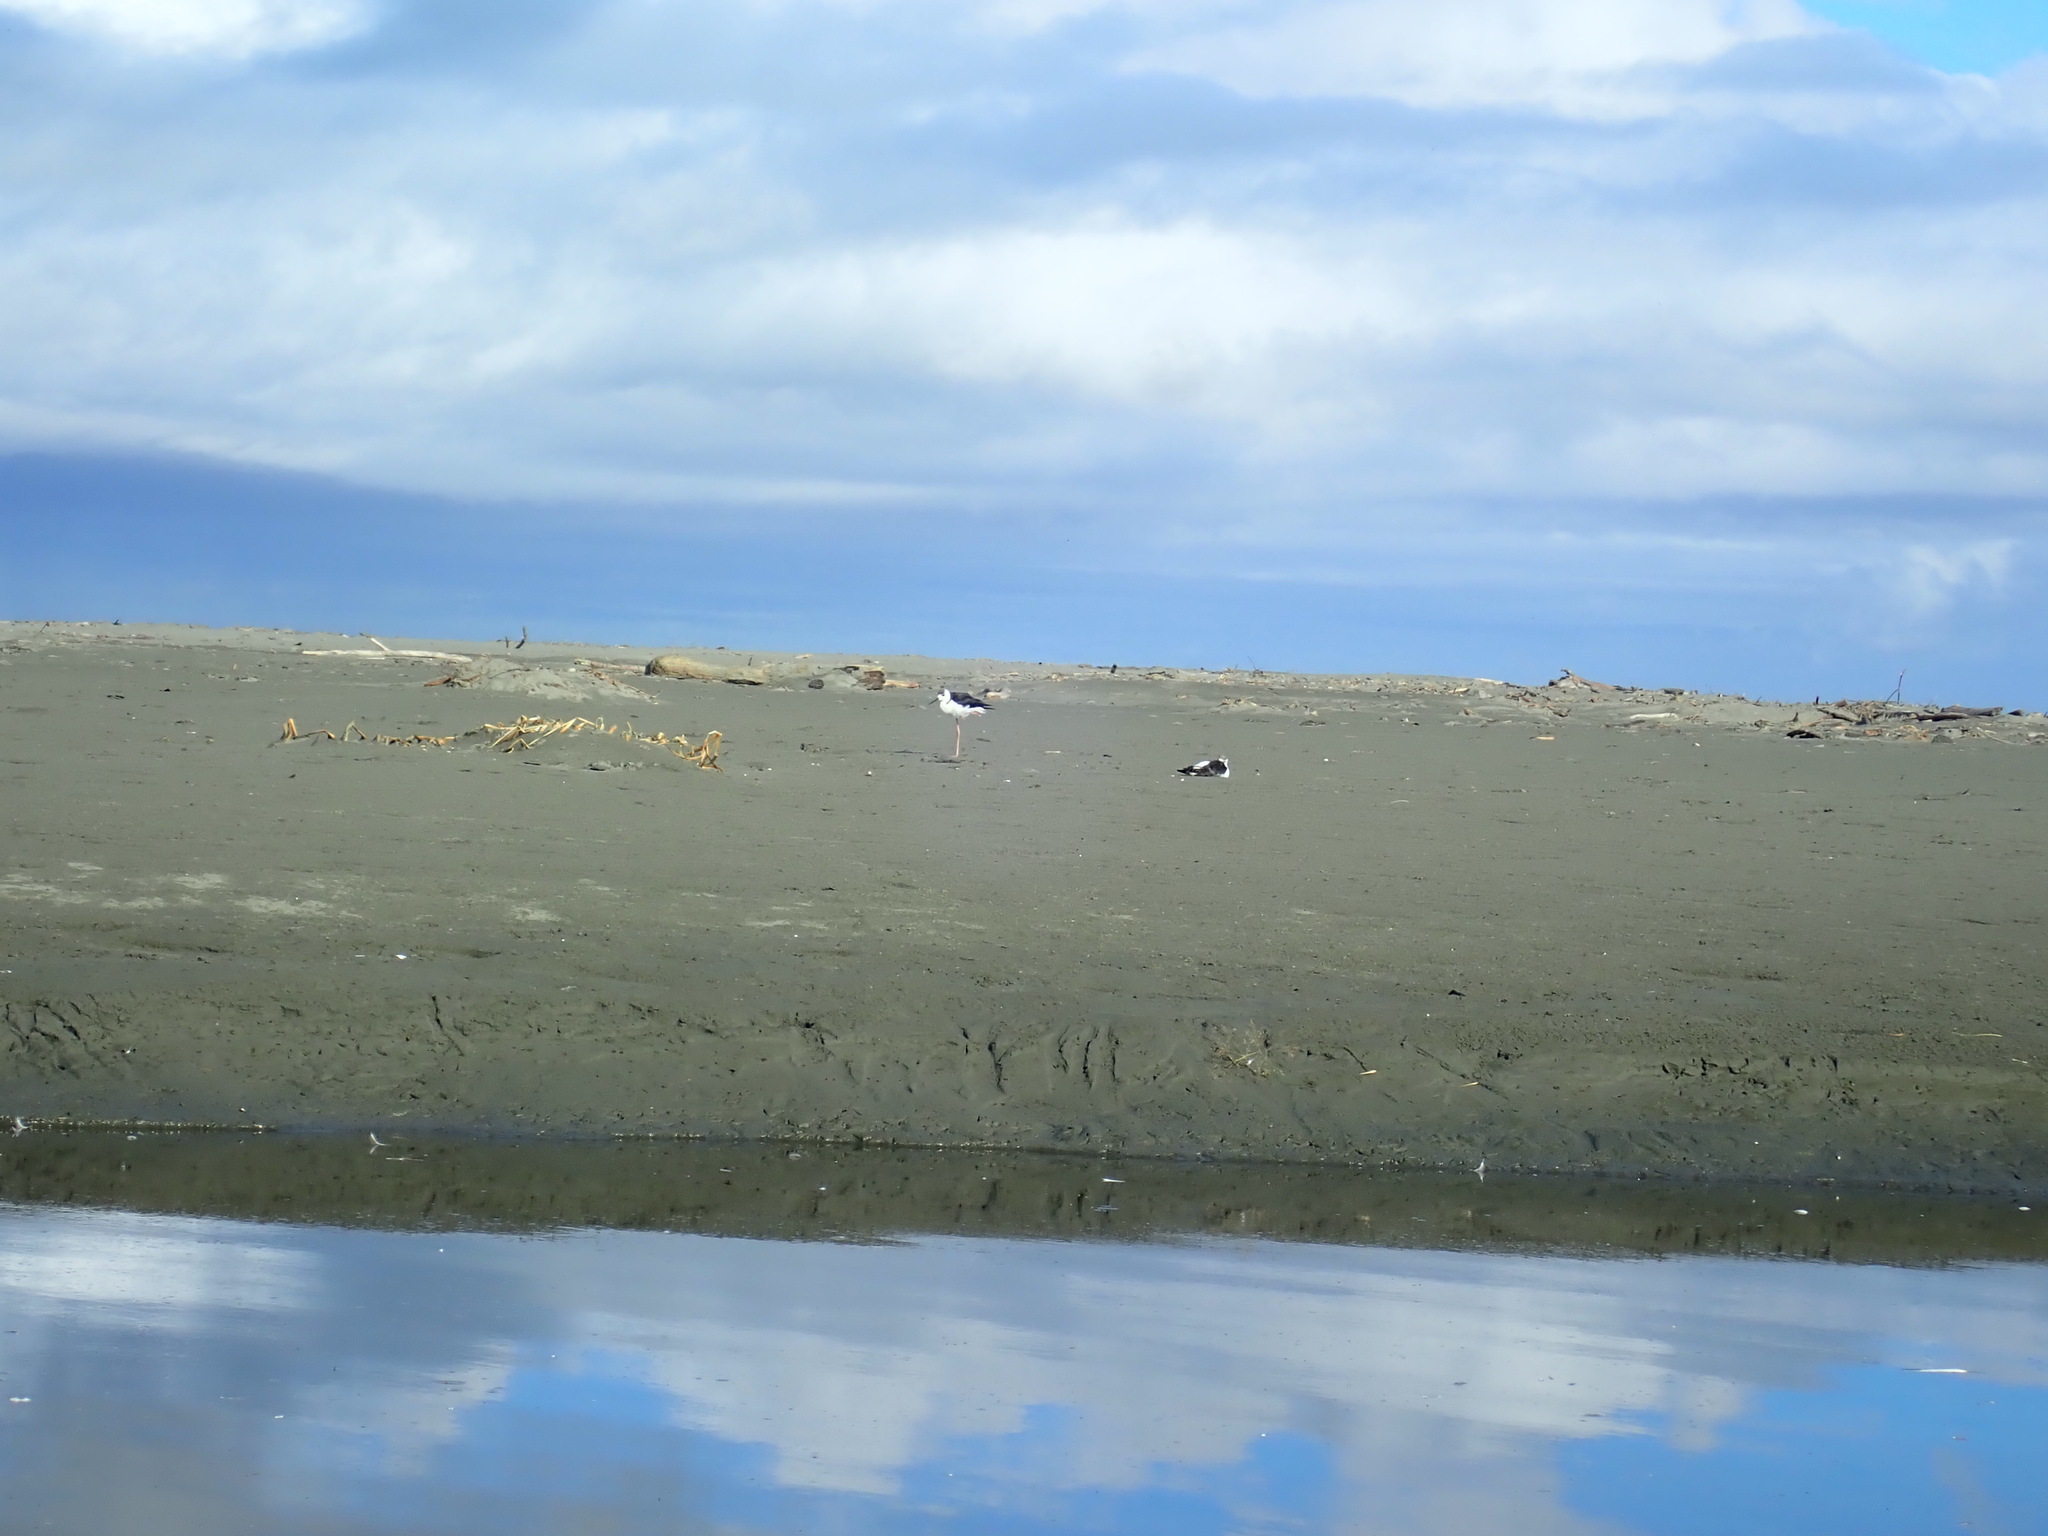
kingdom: Animalia
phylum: Chordata
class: Aves
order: Charadriiformes
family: Recurvirostridae
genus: Himantopus
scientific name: Himantopus leucocephalus
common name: White-headed stilt
